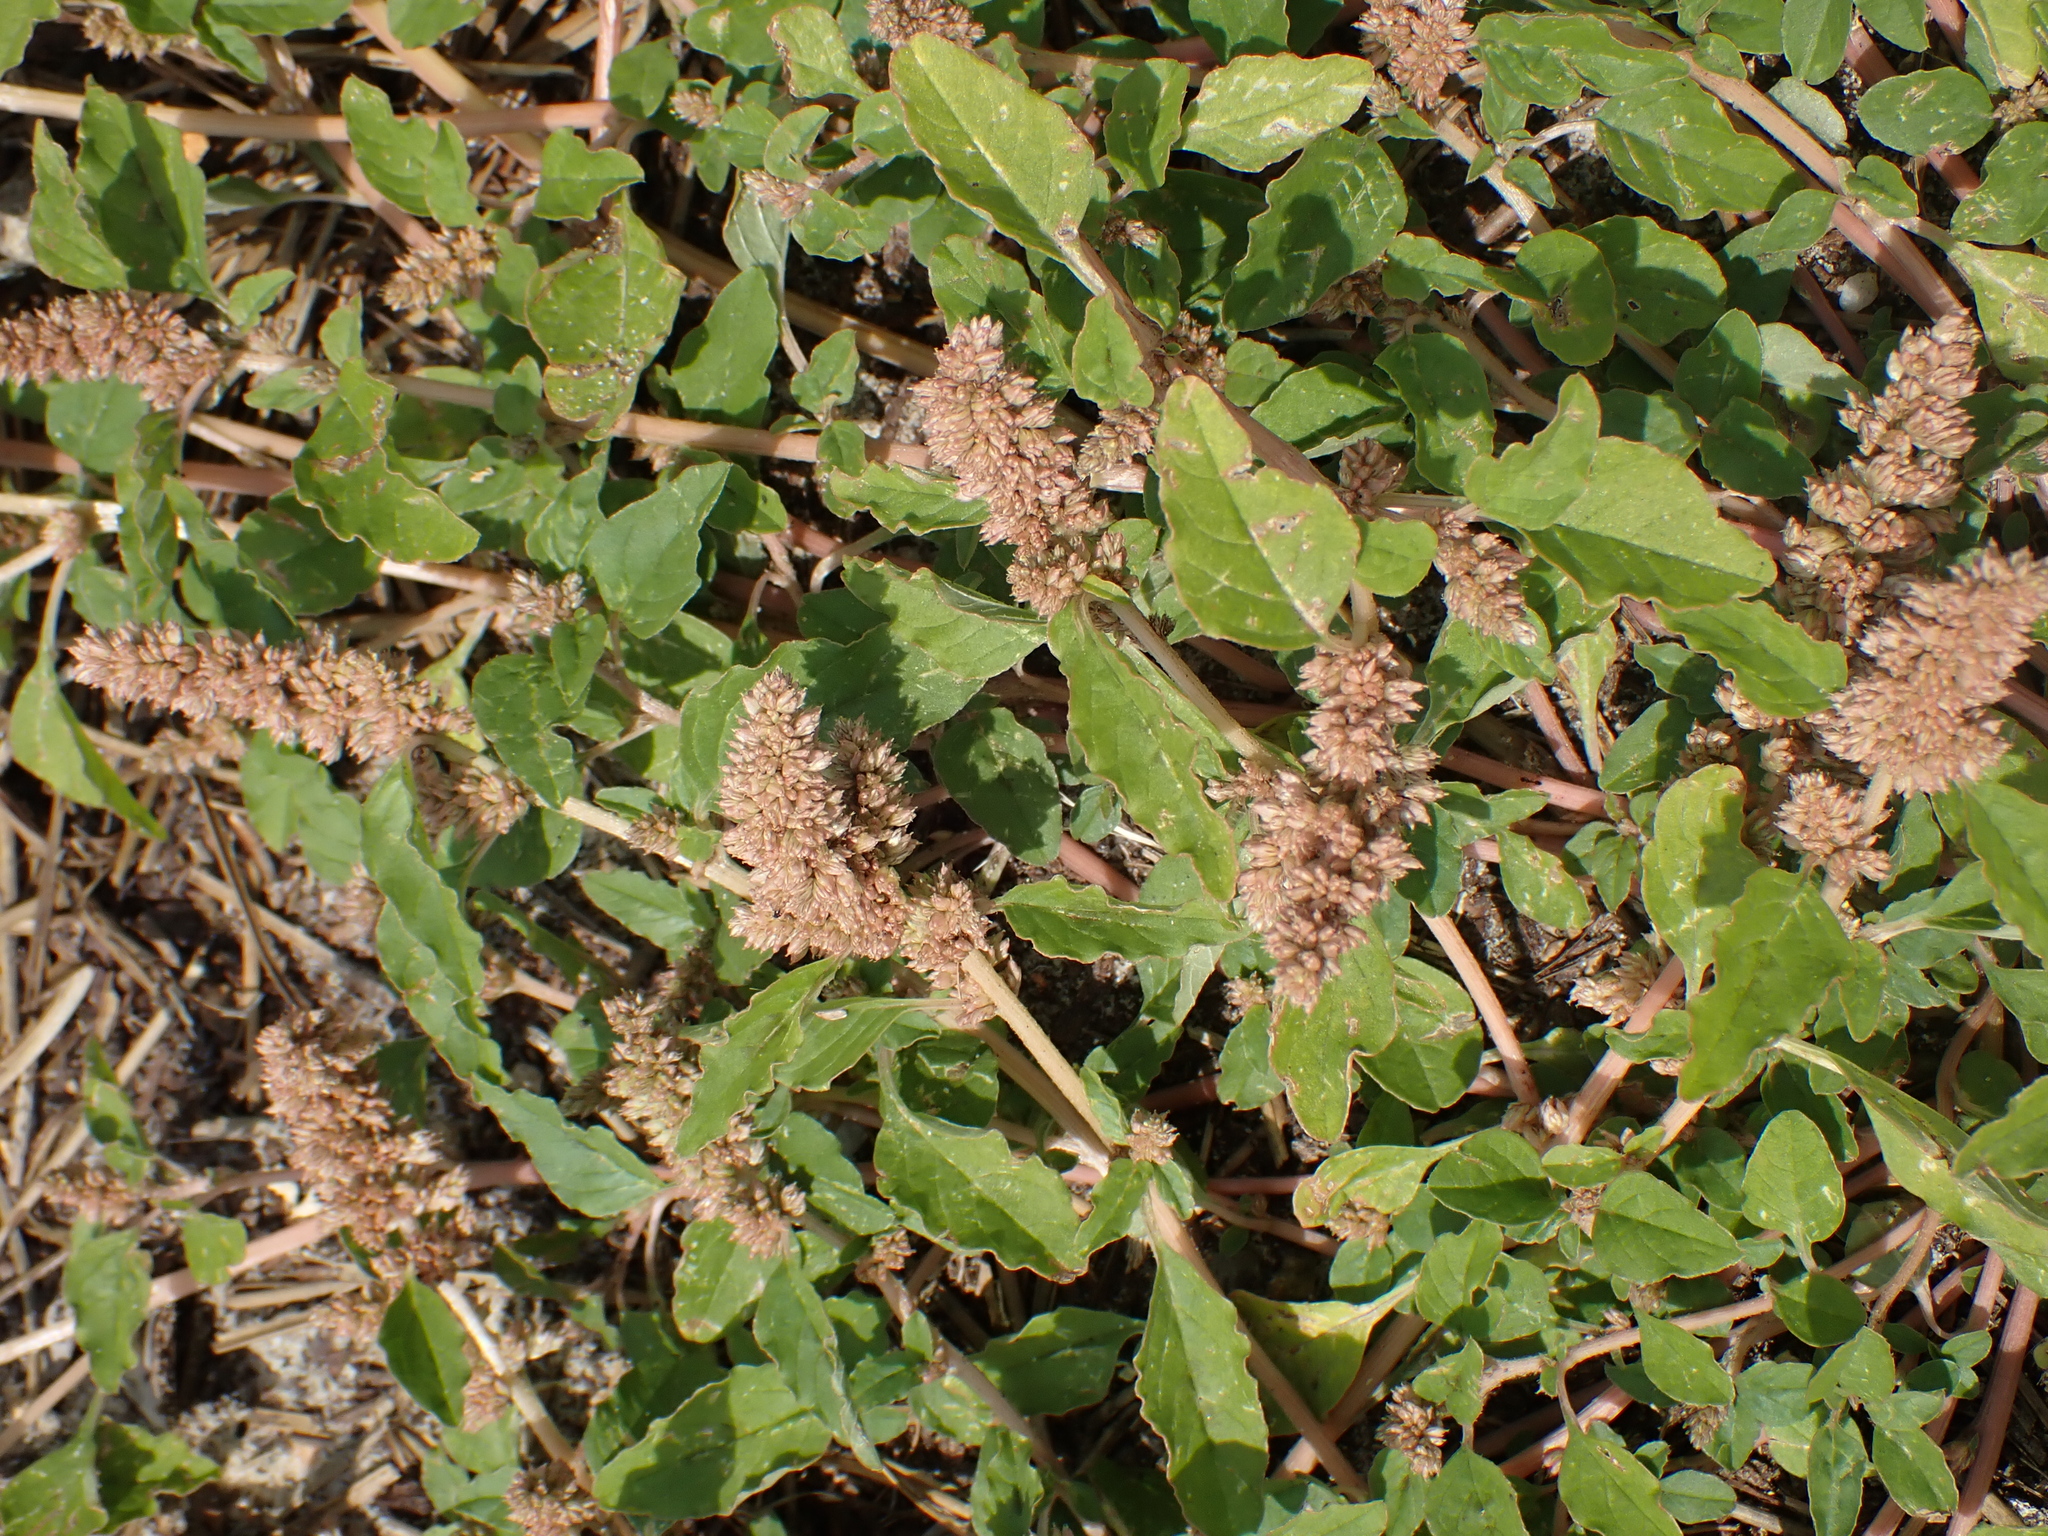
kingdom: Plantae
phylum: Tracheophyta
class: Magnoliopsida
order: Caryophyllales
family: Amaranthaceae
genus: Amaranthus
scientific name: Amaranthus deflexus
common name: Perennial pigweed
